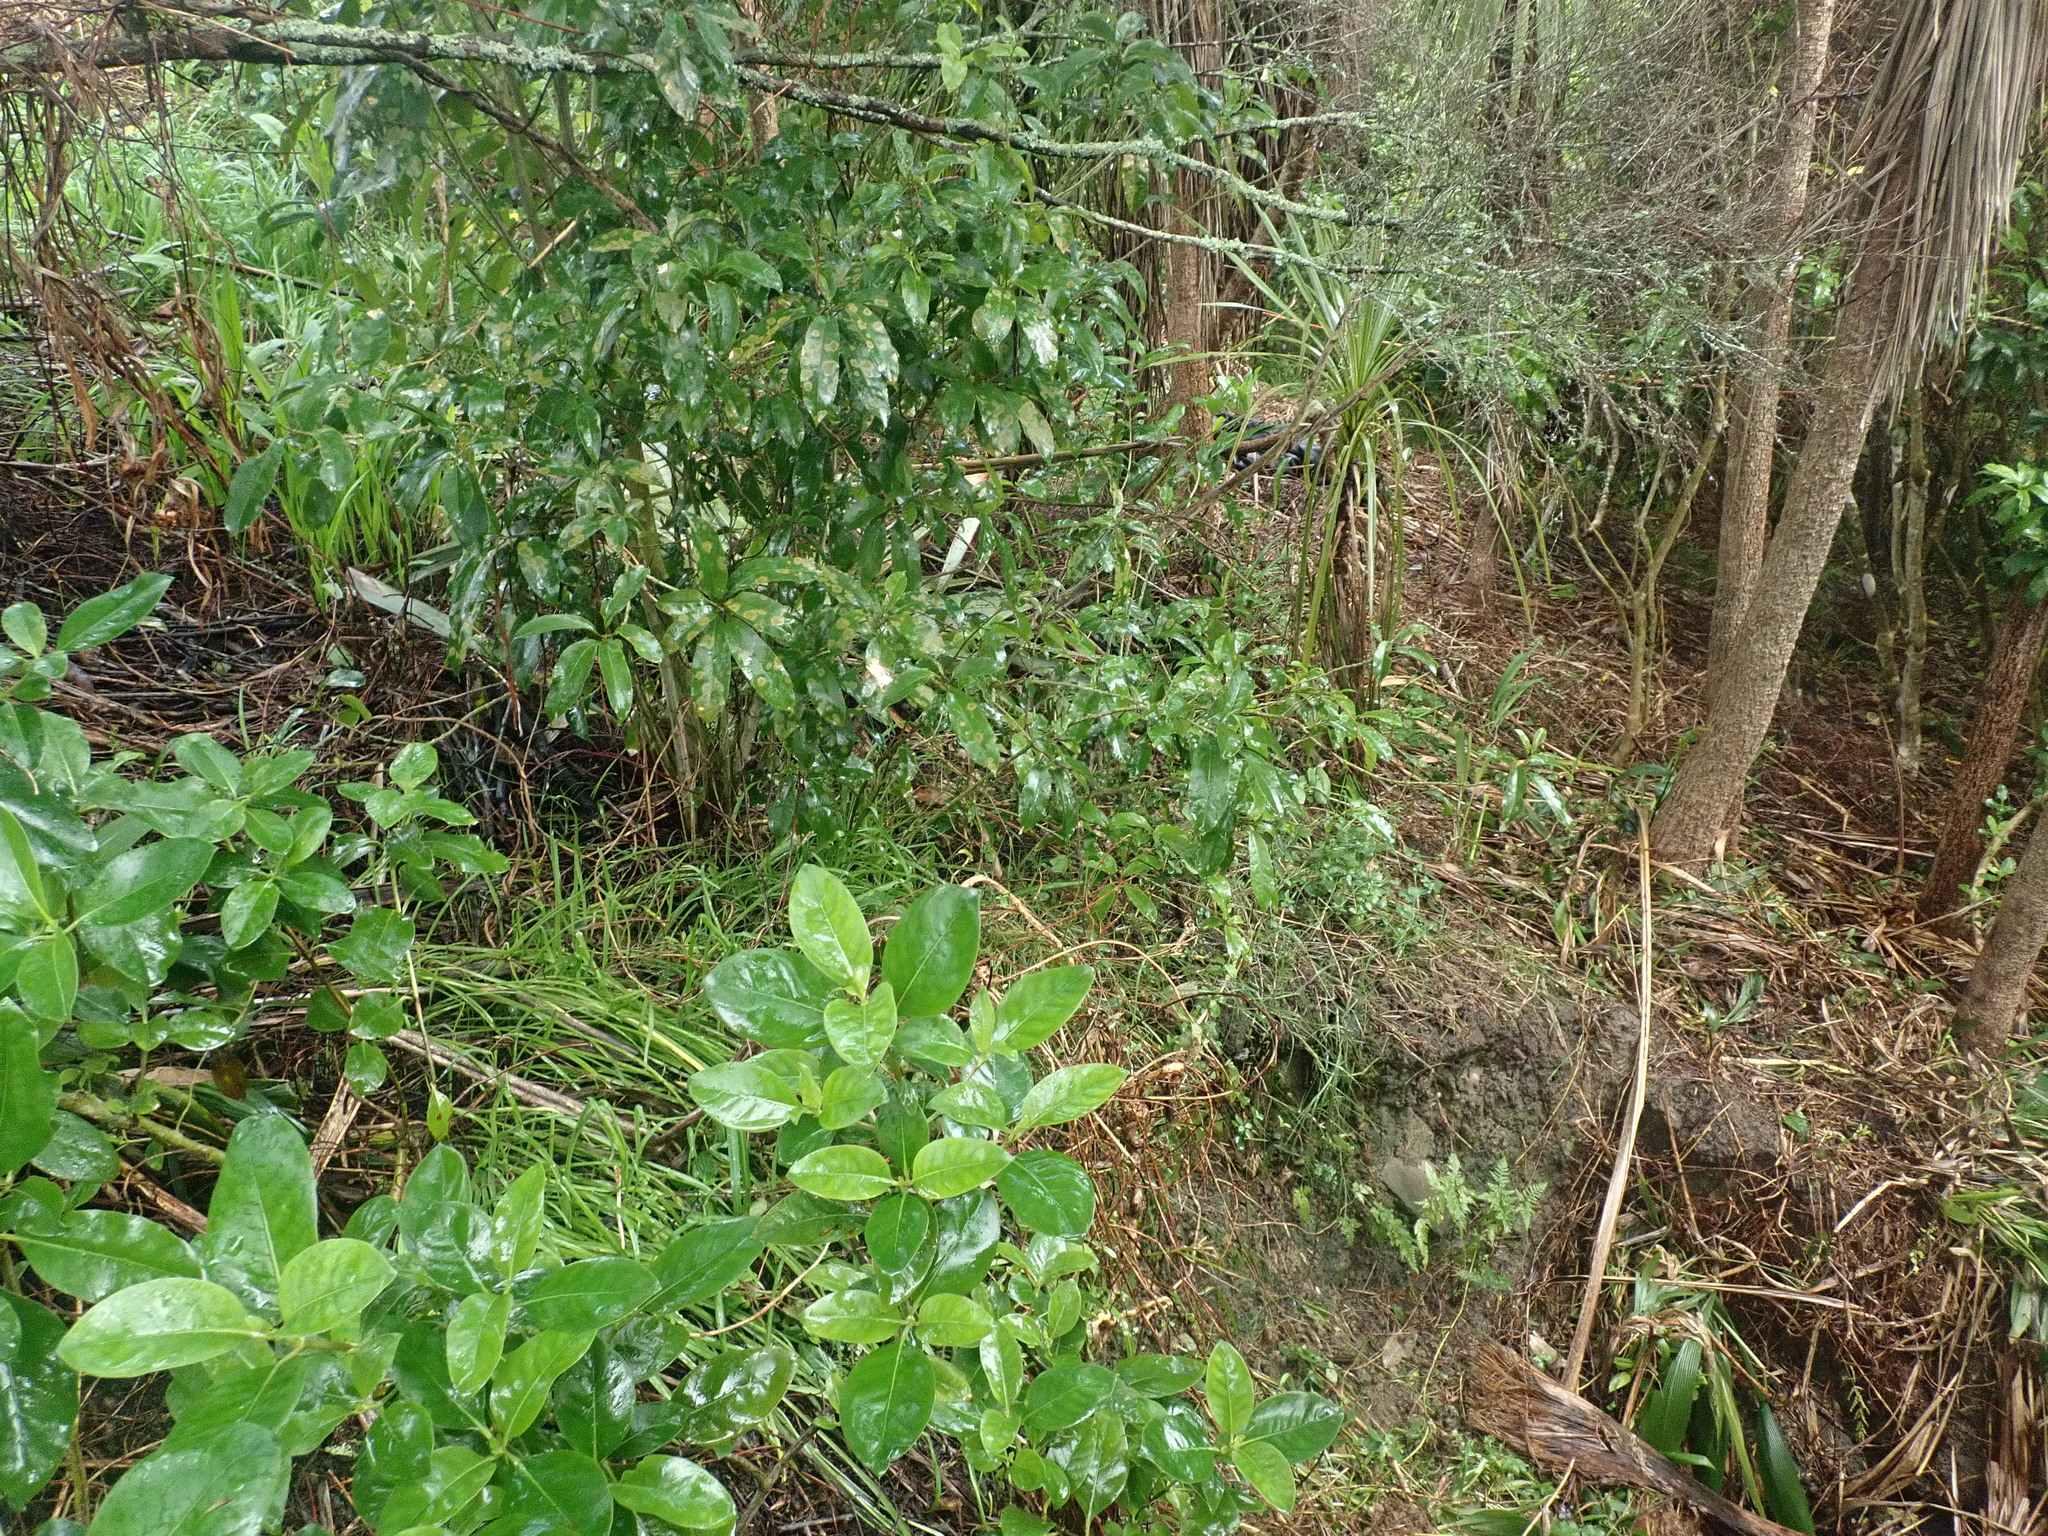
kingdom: Plantae
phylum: Tracheophyta
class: Liliopsida
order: Asparagales
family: Asparagaceae
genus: Cordyline
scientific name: Cordyline australis
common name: Cabbage-palm
